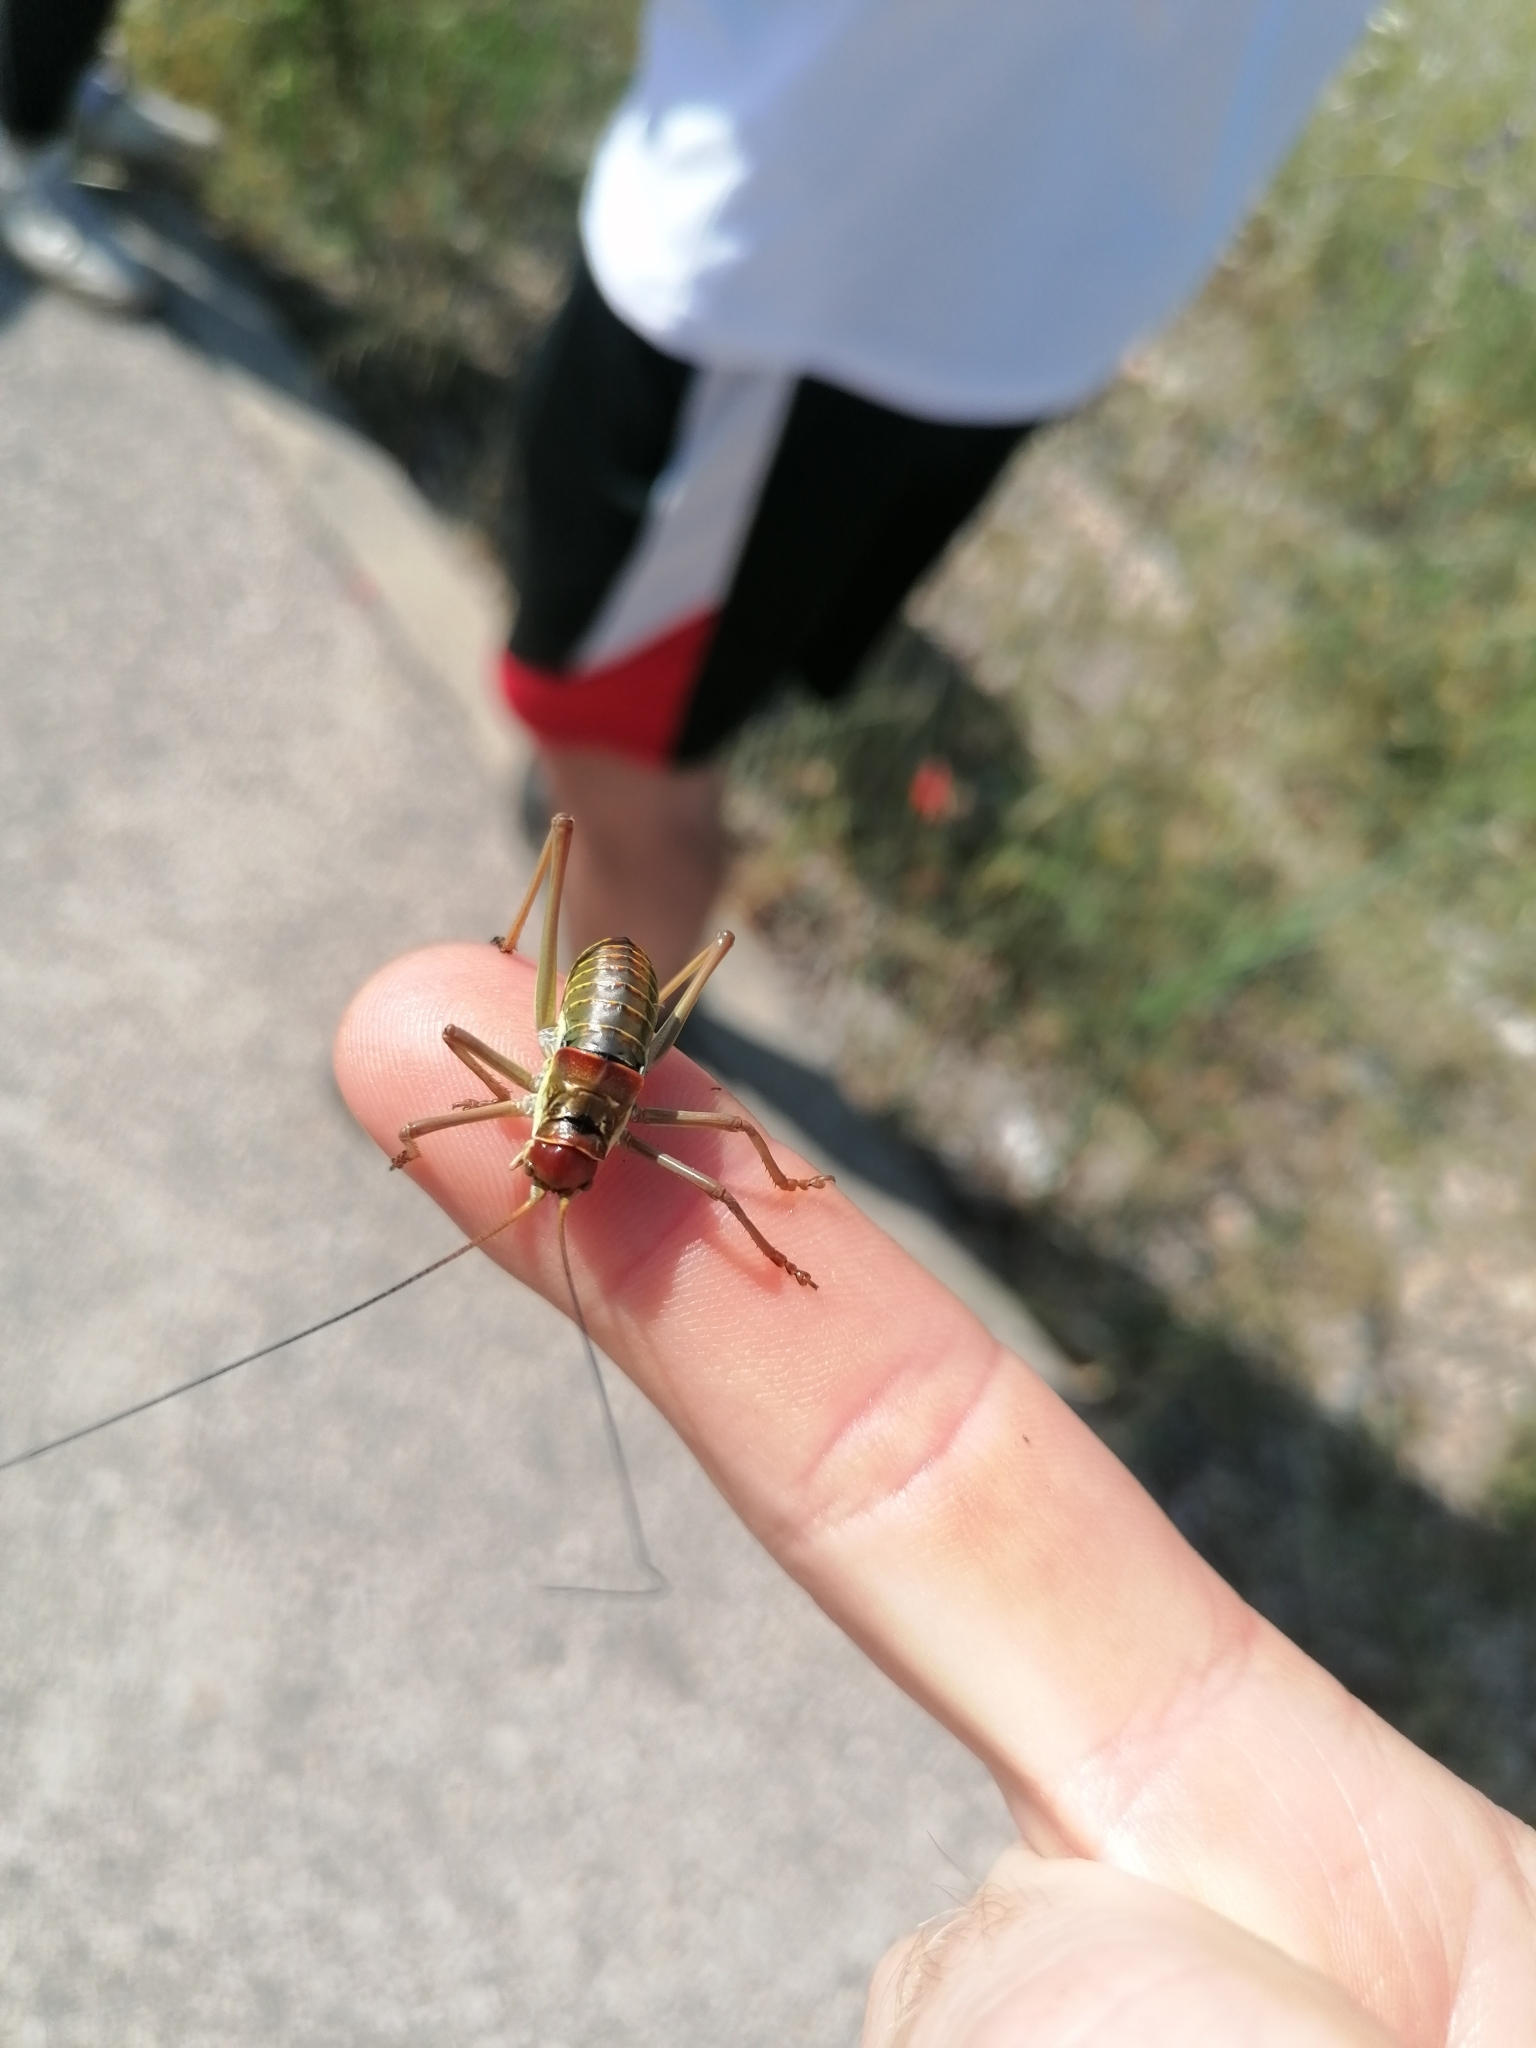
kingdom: Animalia
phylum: Arthropoda
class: Insecta
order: Orthoptera
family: Tettigoniidae
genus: Dinarippiger
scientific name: Dinarippiger discoidalis
